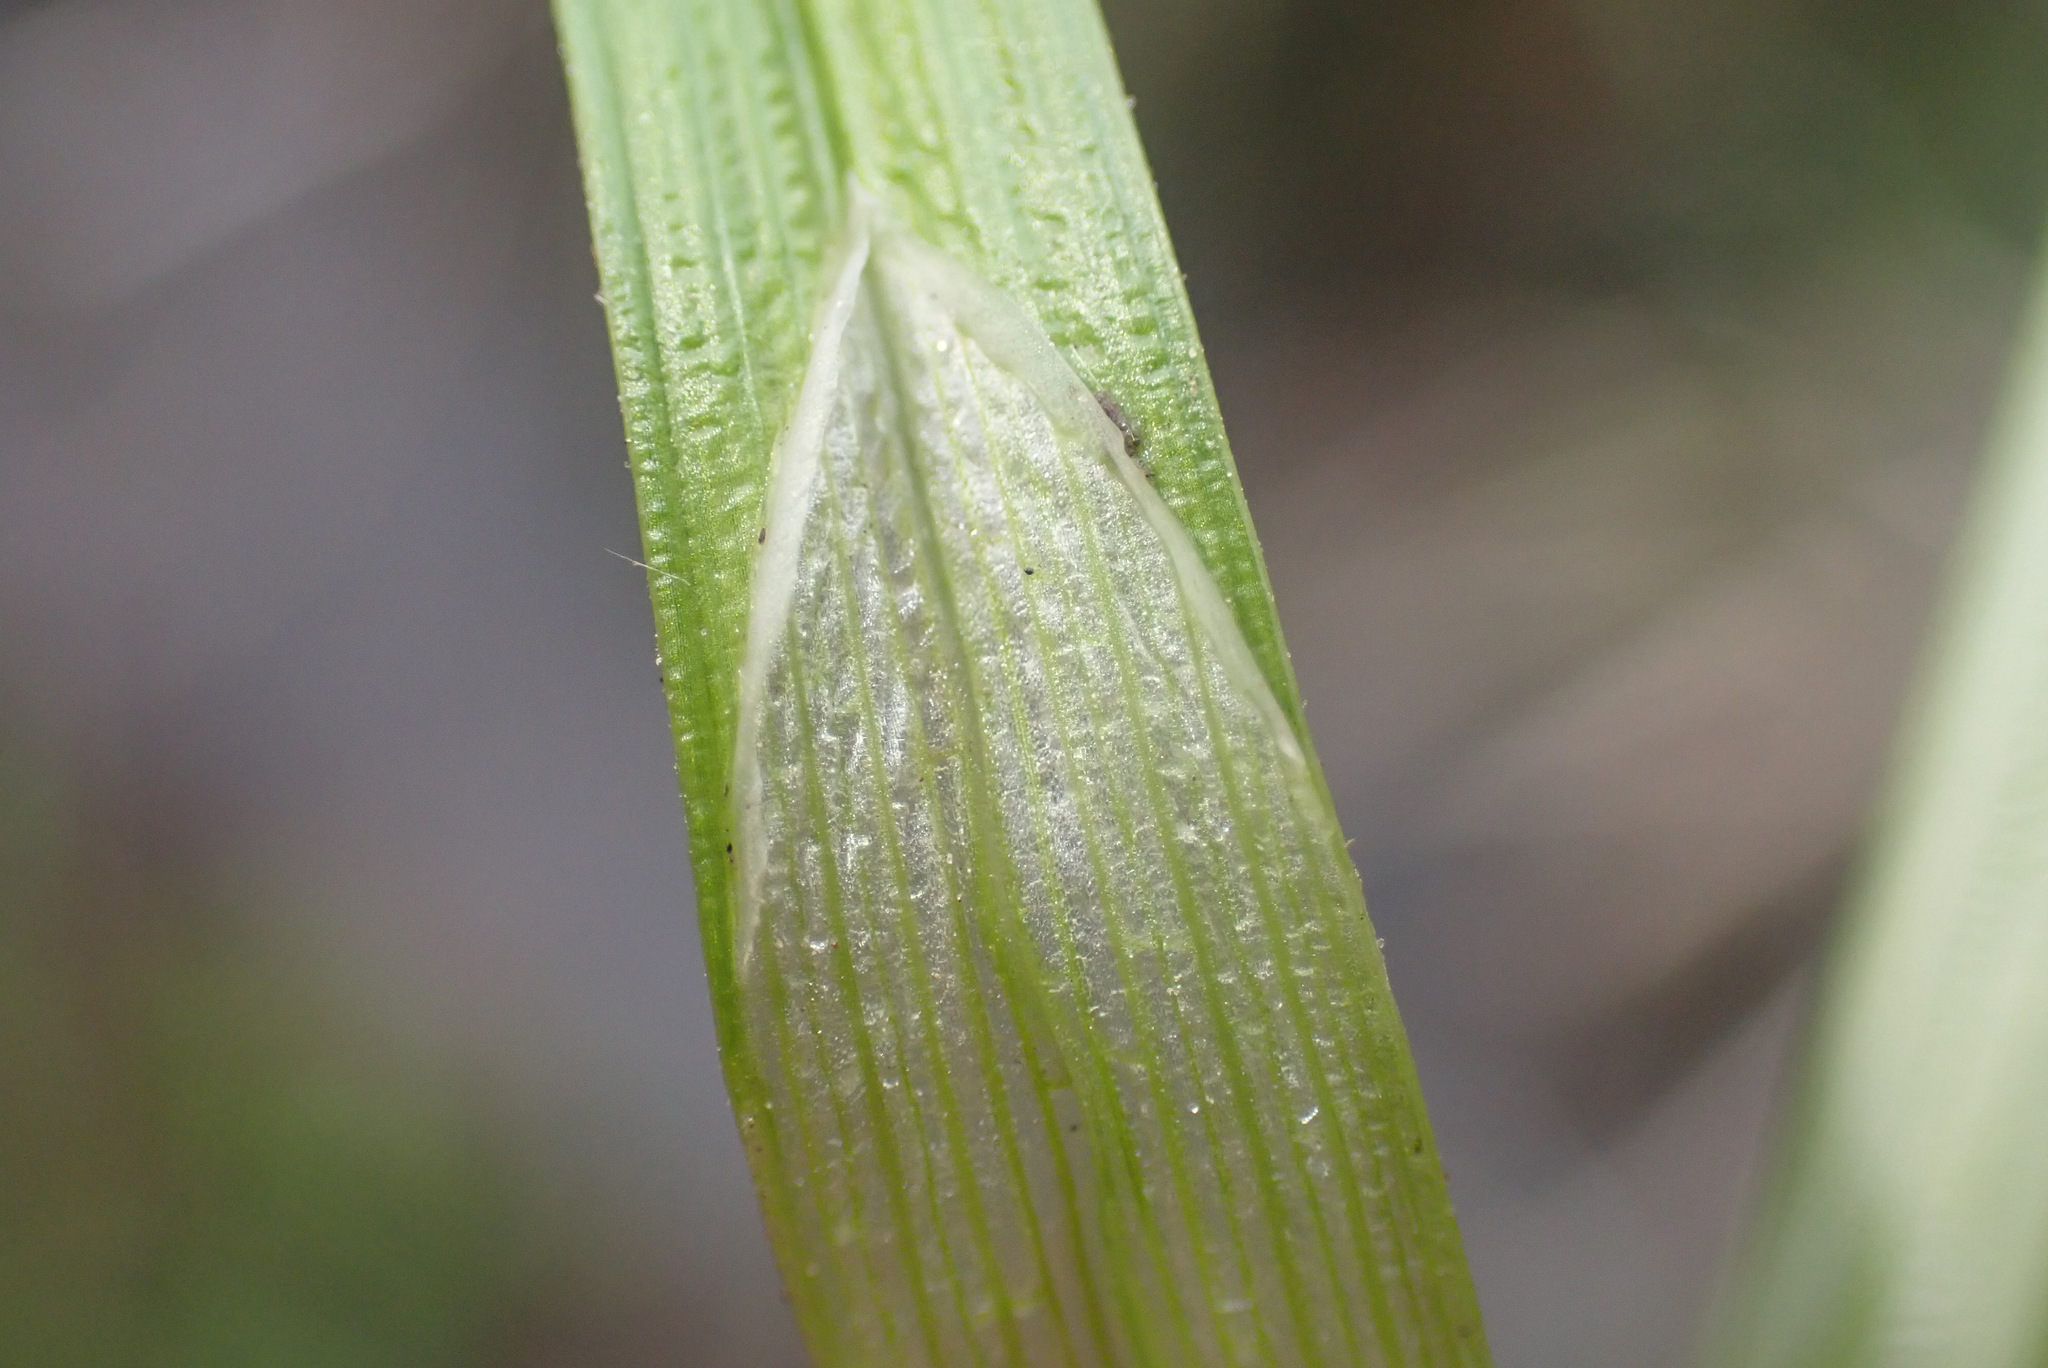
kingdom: Plantae
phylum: Tracheophyta
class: Liliopsida
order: Poales
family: Cyperaceae
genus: Carex
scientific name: Carex otrubae
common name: False fox-sedge
